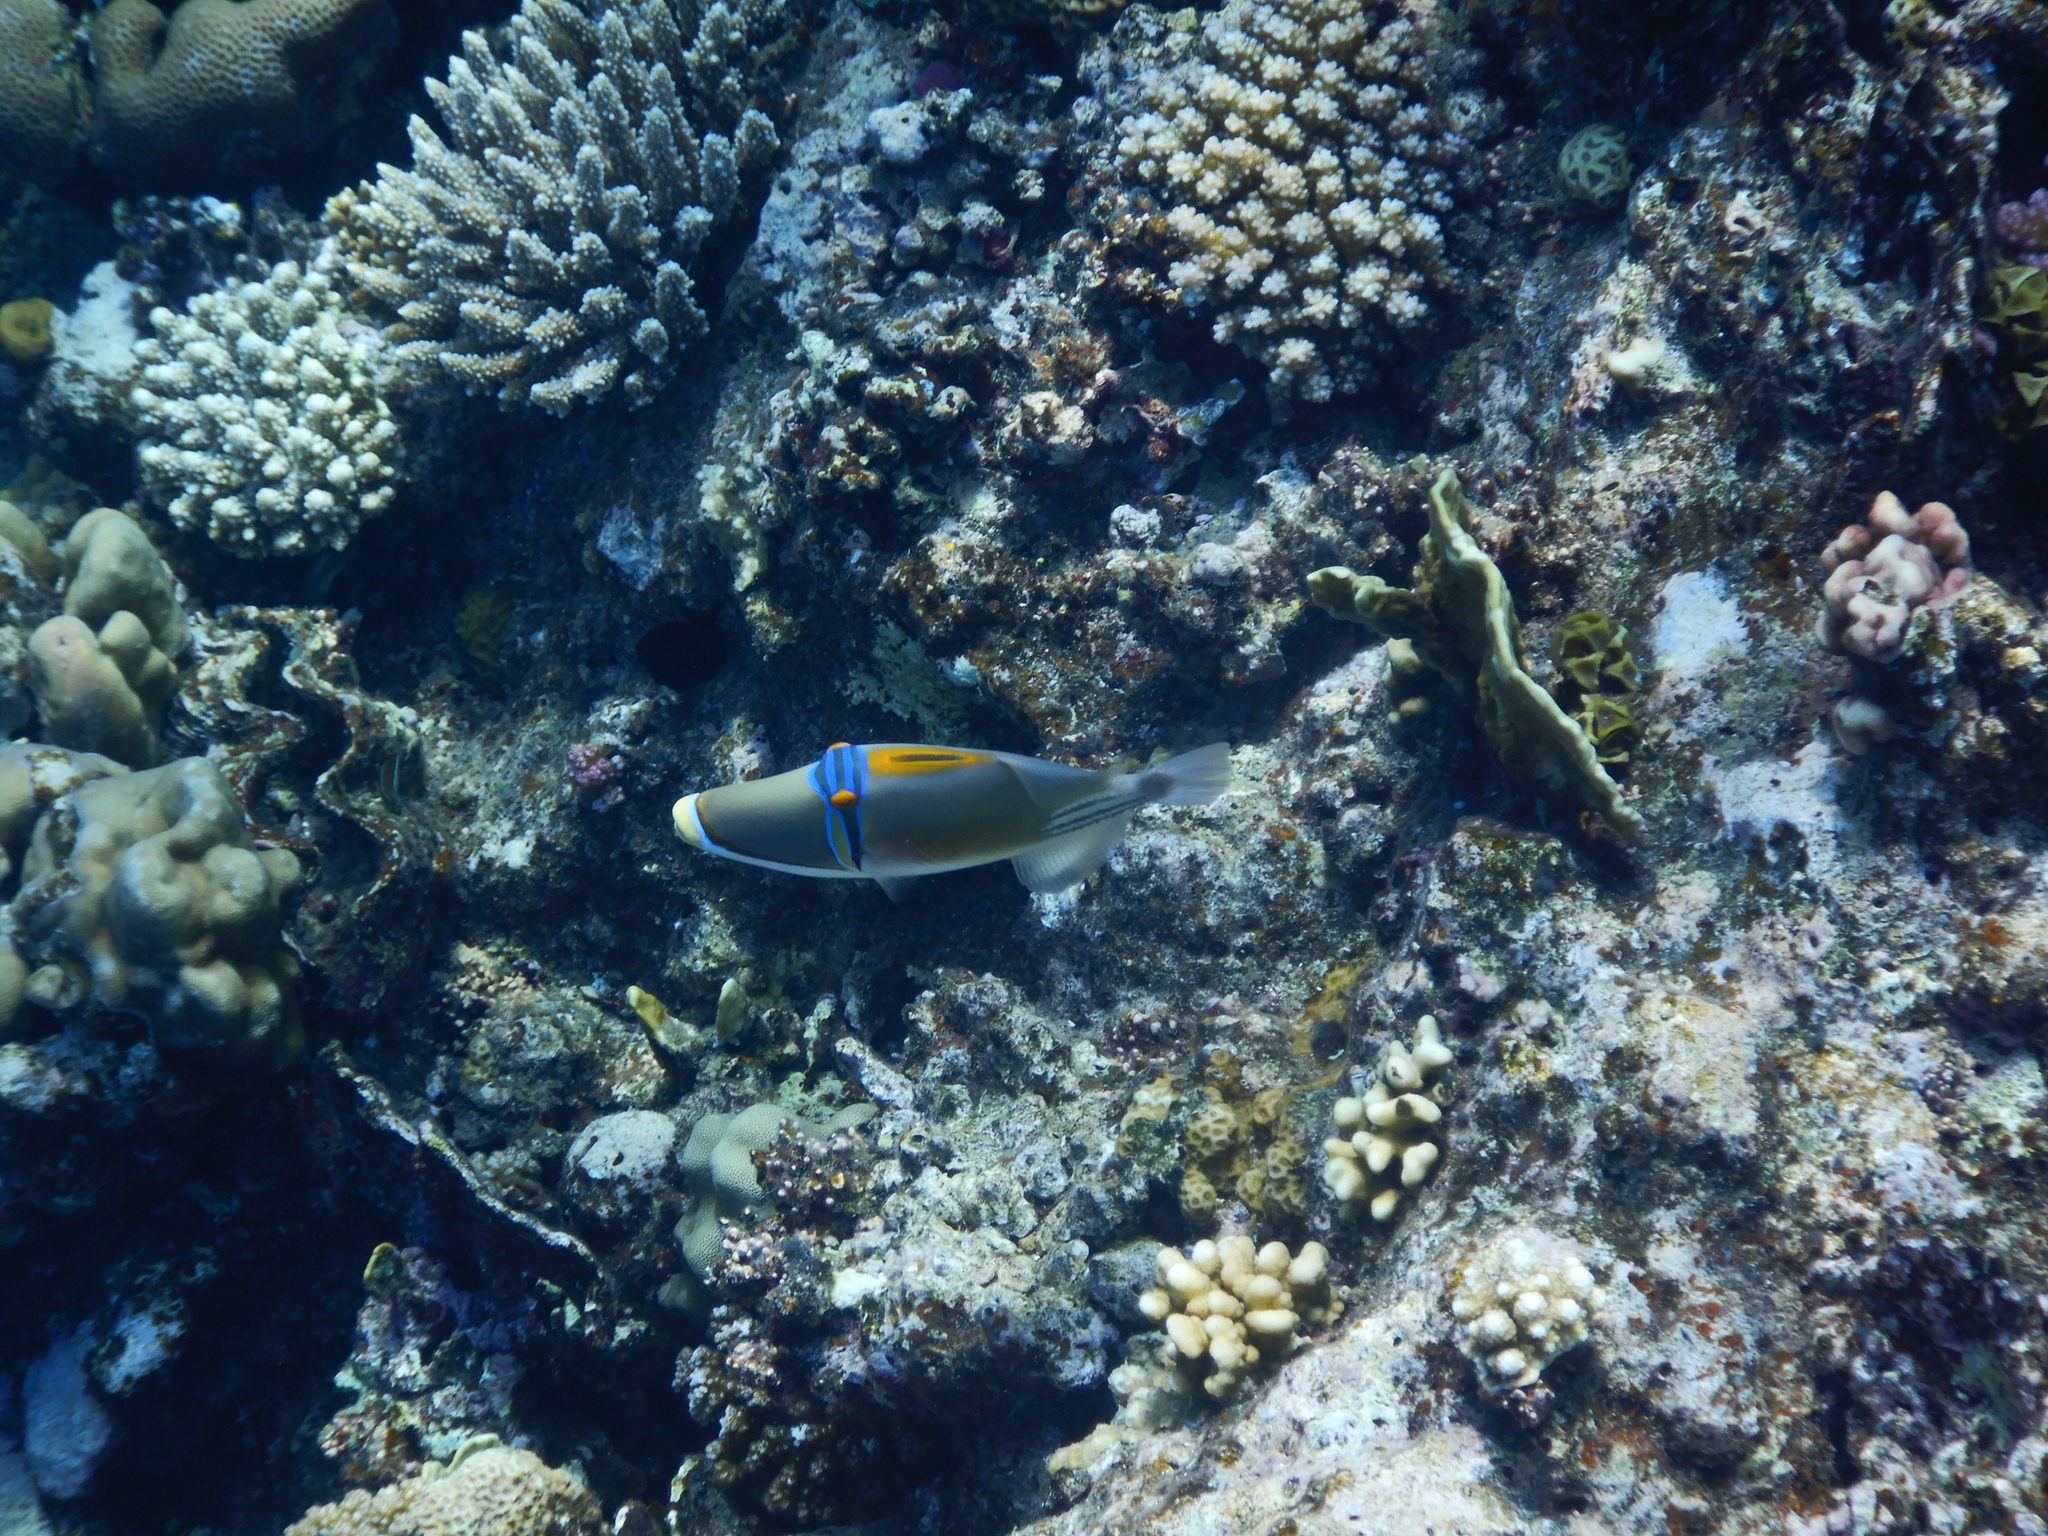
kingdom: Animalia
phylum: Chordata
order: Tetraodontiformes
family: Balistidae
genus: Rhinecanthus
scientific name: Rhinecanthus assasi
